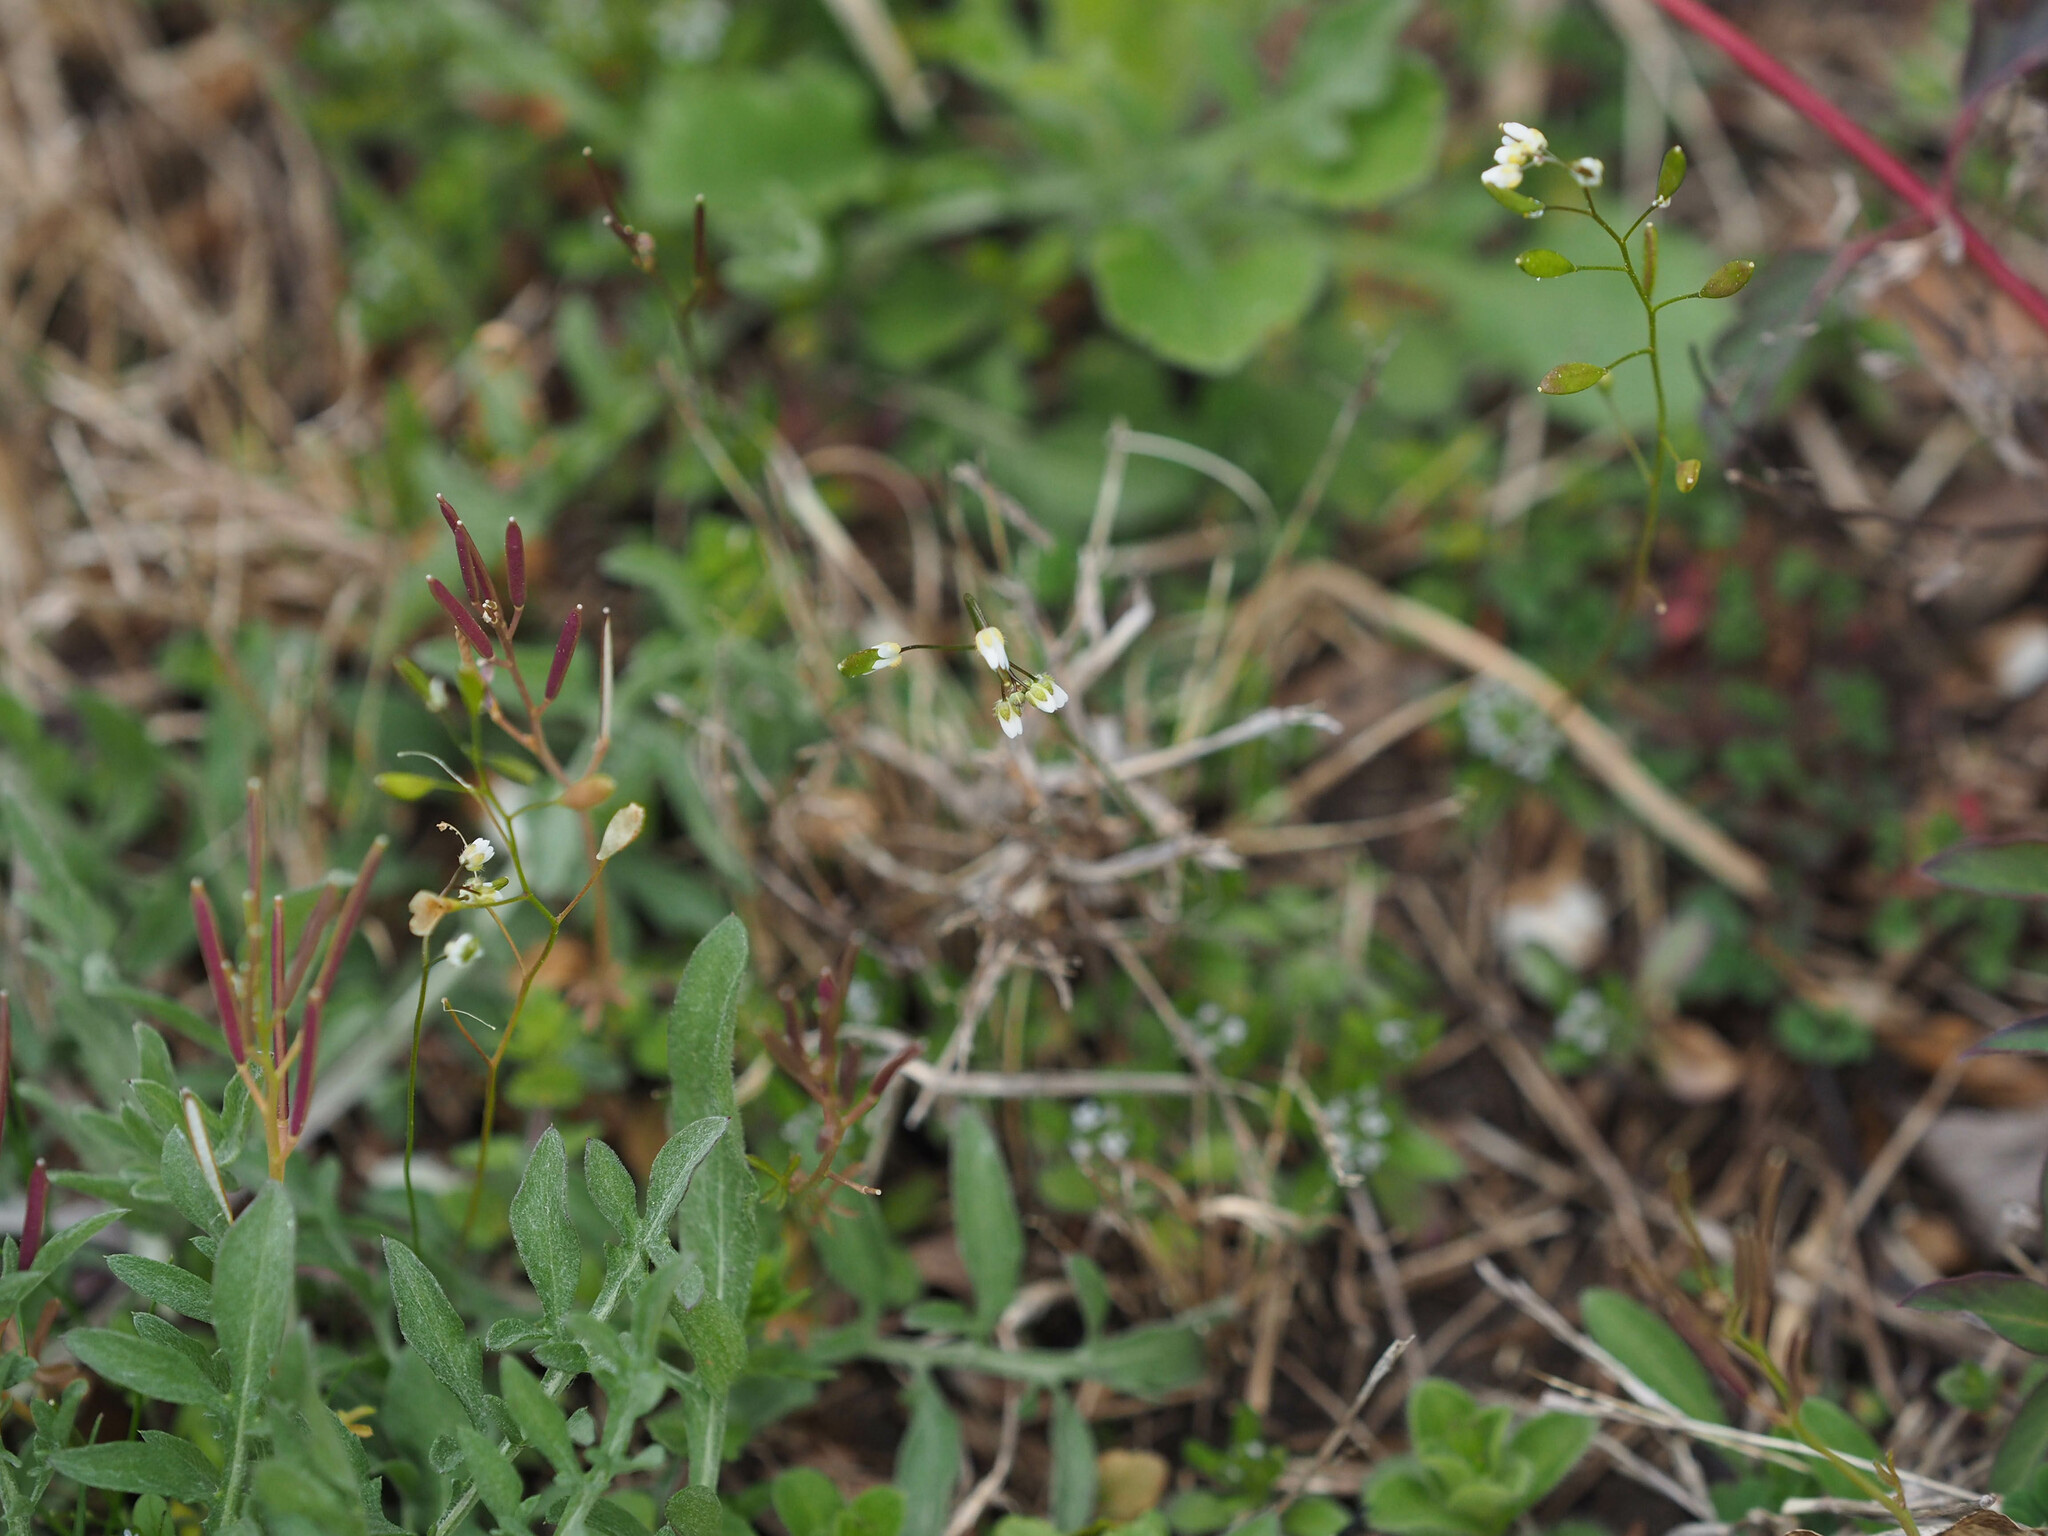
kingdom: Plantae
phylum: Tracheophyta
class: Magnoliopsida
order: Brassicales
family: Brassicaceae
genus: Draba
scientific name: Draba verna
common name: Spring draba
